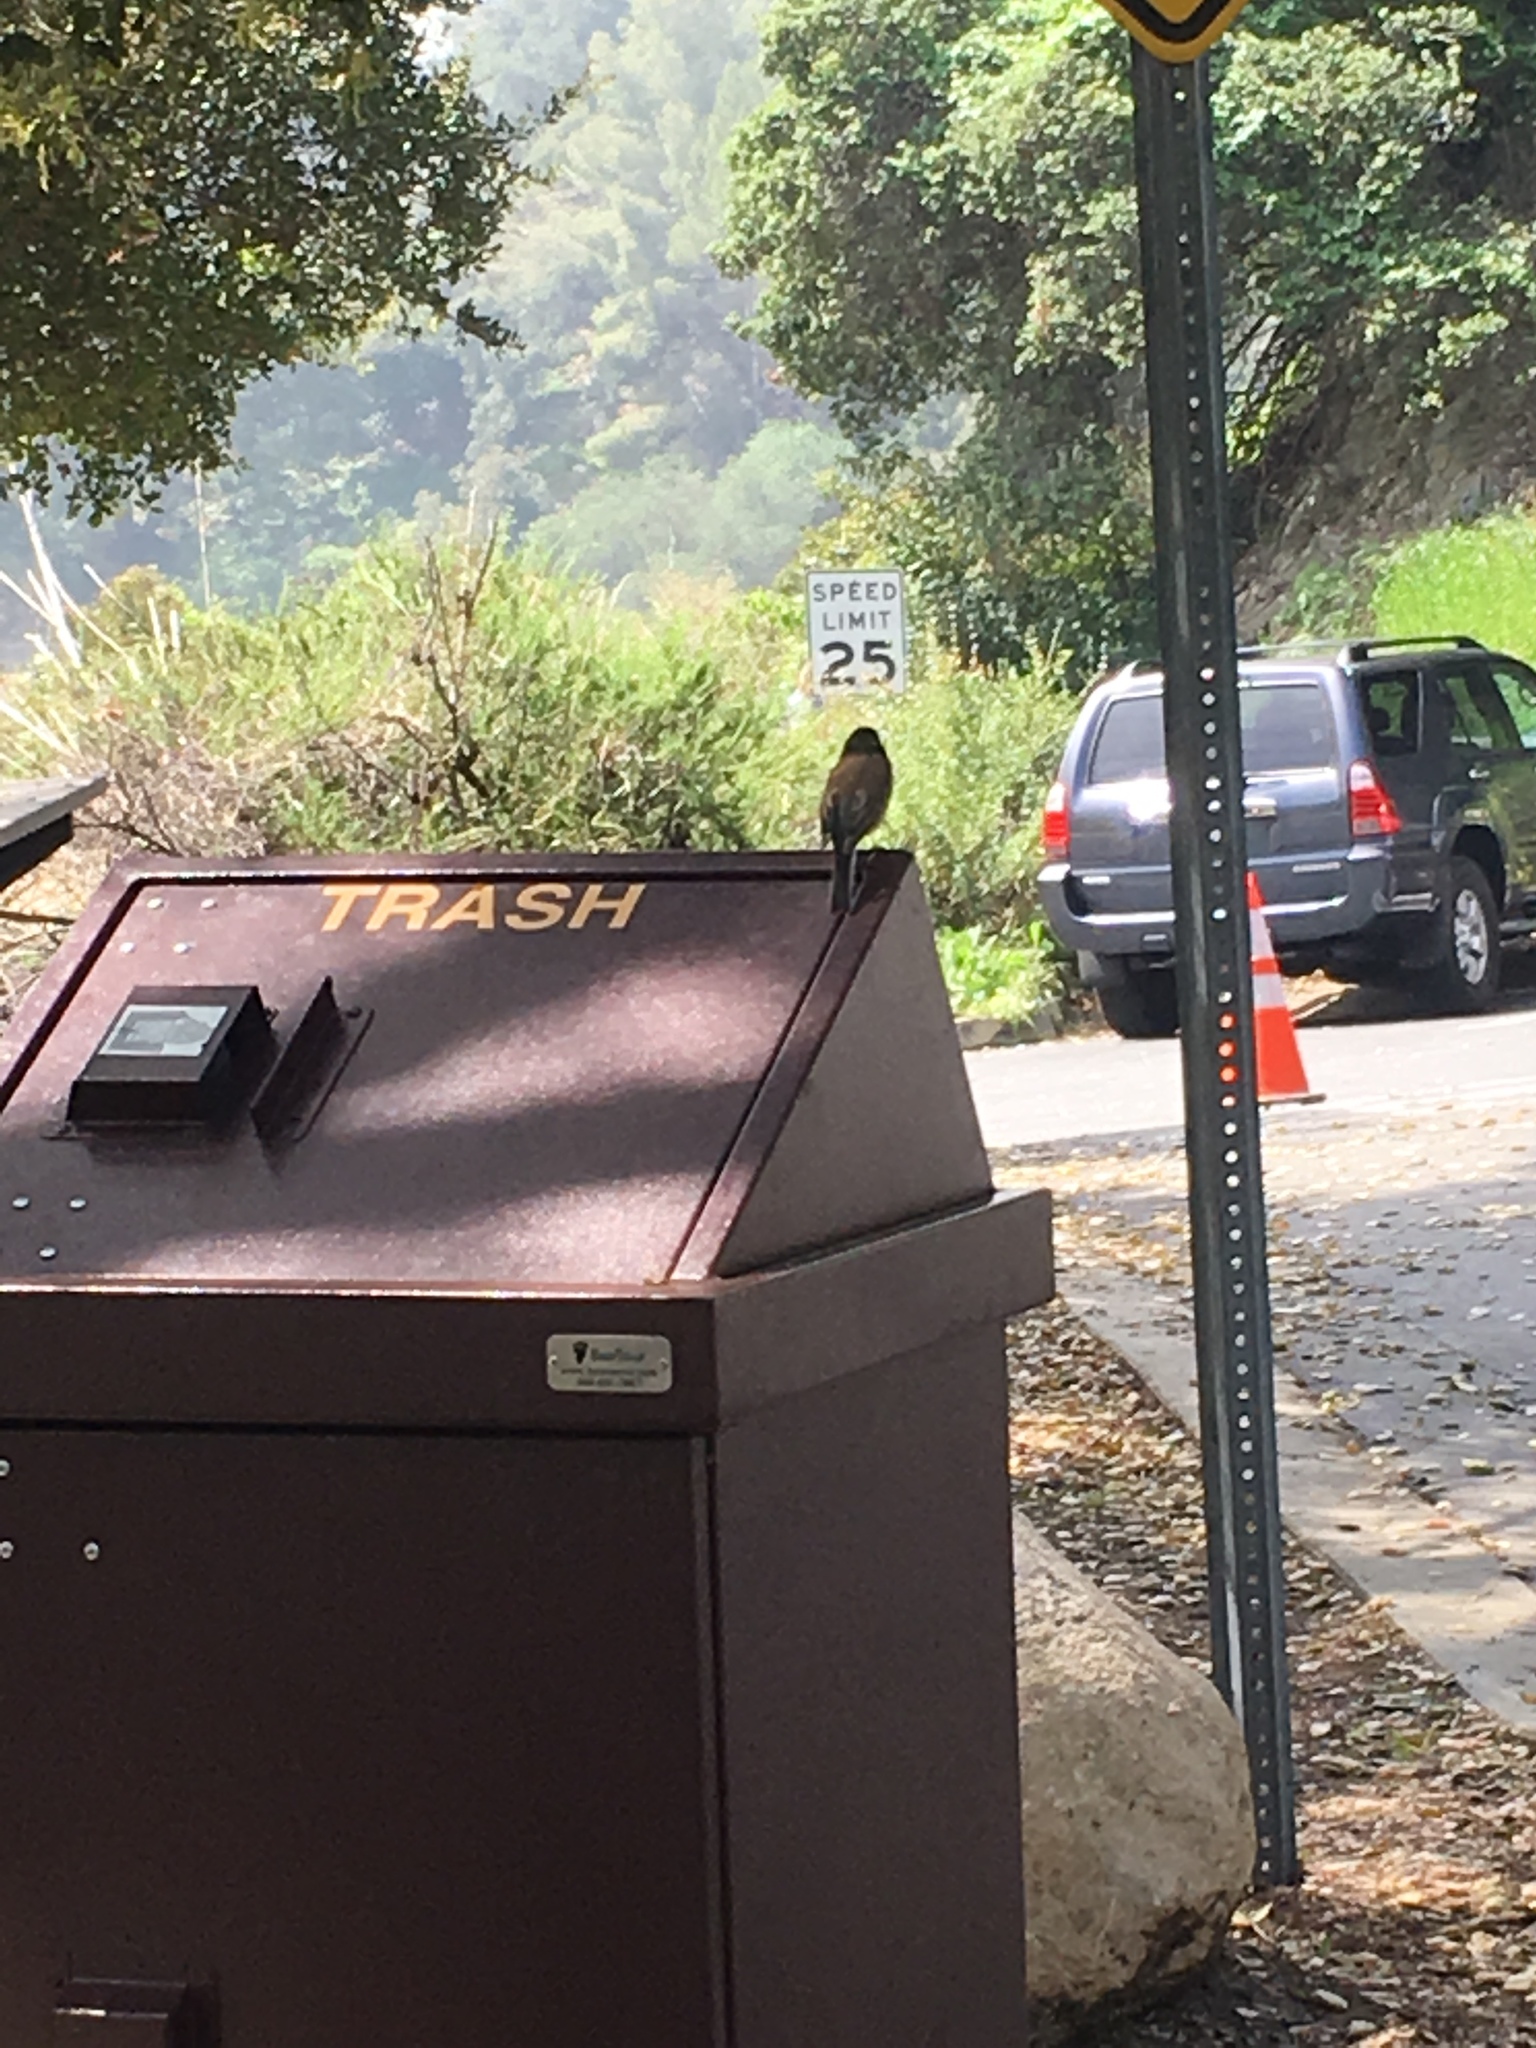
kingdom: Animalia
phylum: Chordata
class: Aves
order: Passeriformes
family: Passerellidae
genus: Junco
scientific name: Junco hyemalis
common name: Dark-eyed junco
